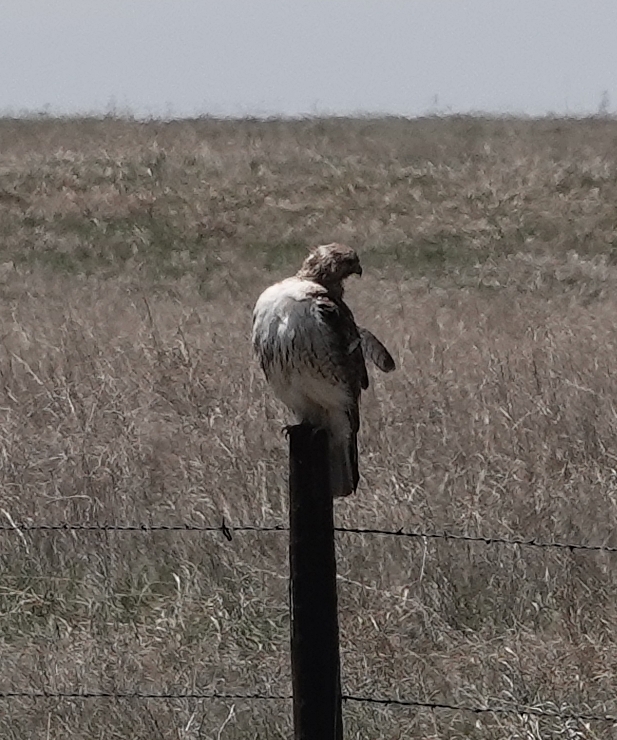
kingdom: Animalia
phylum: Chordata
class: Aves
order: Accipitriformes
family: Accipitridae
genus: Buteo
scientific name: Buteo jamaicensis
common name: Red-tailed hawk
